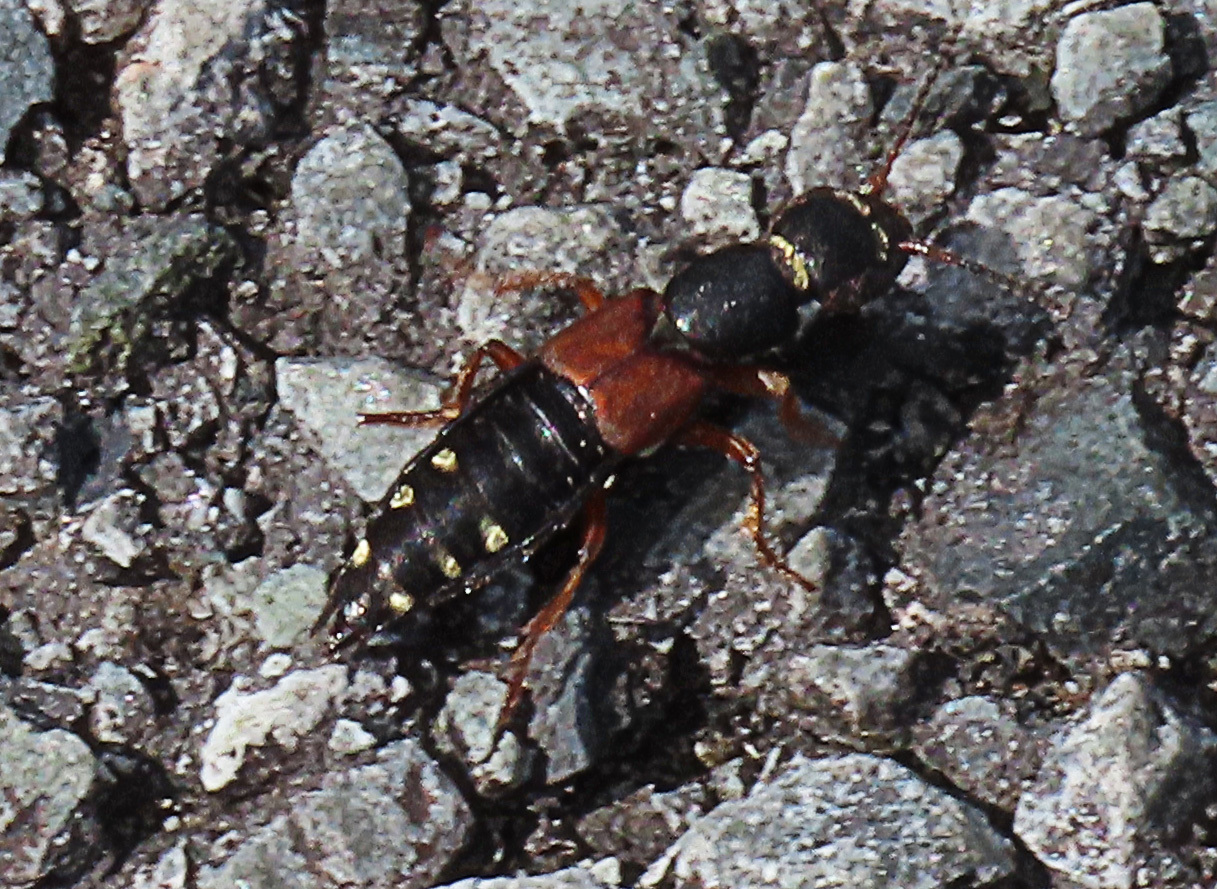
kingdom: Animalia
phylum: Arthropoda
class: Insecta
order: Coleoptera
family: Staphylinidae
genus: Staphylinus
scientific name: Staphylinus erythropterus
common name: Staph beetle
